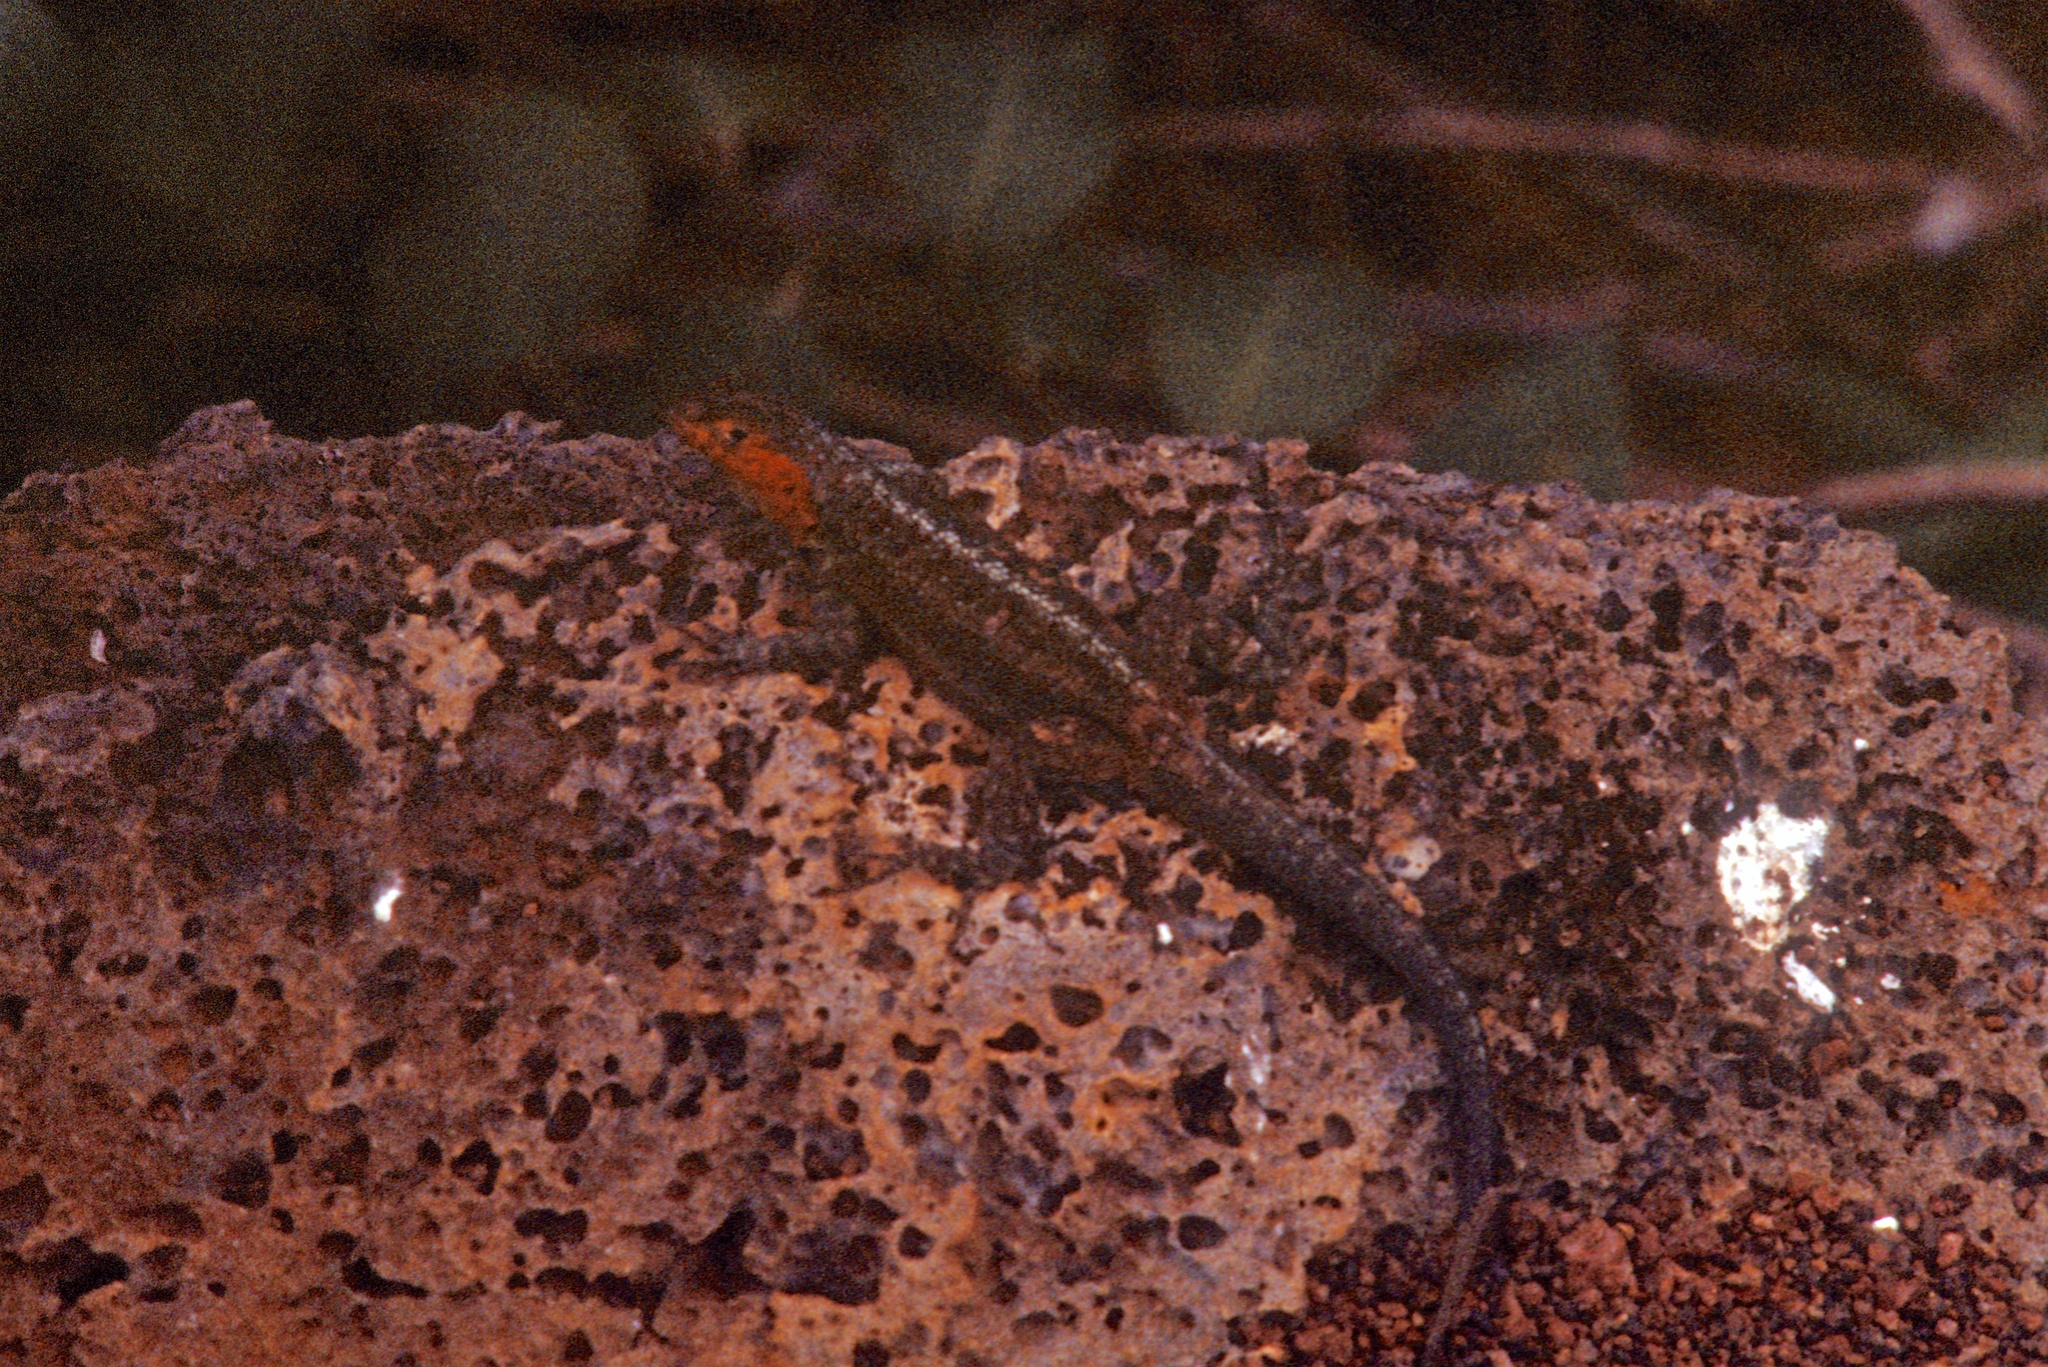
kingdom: Animalia
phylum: Chordata
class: Squamata
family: Tropiduridae
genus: Microlophus
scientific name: Microlophus indefatigabilis
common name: Galapagos lava lizard
